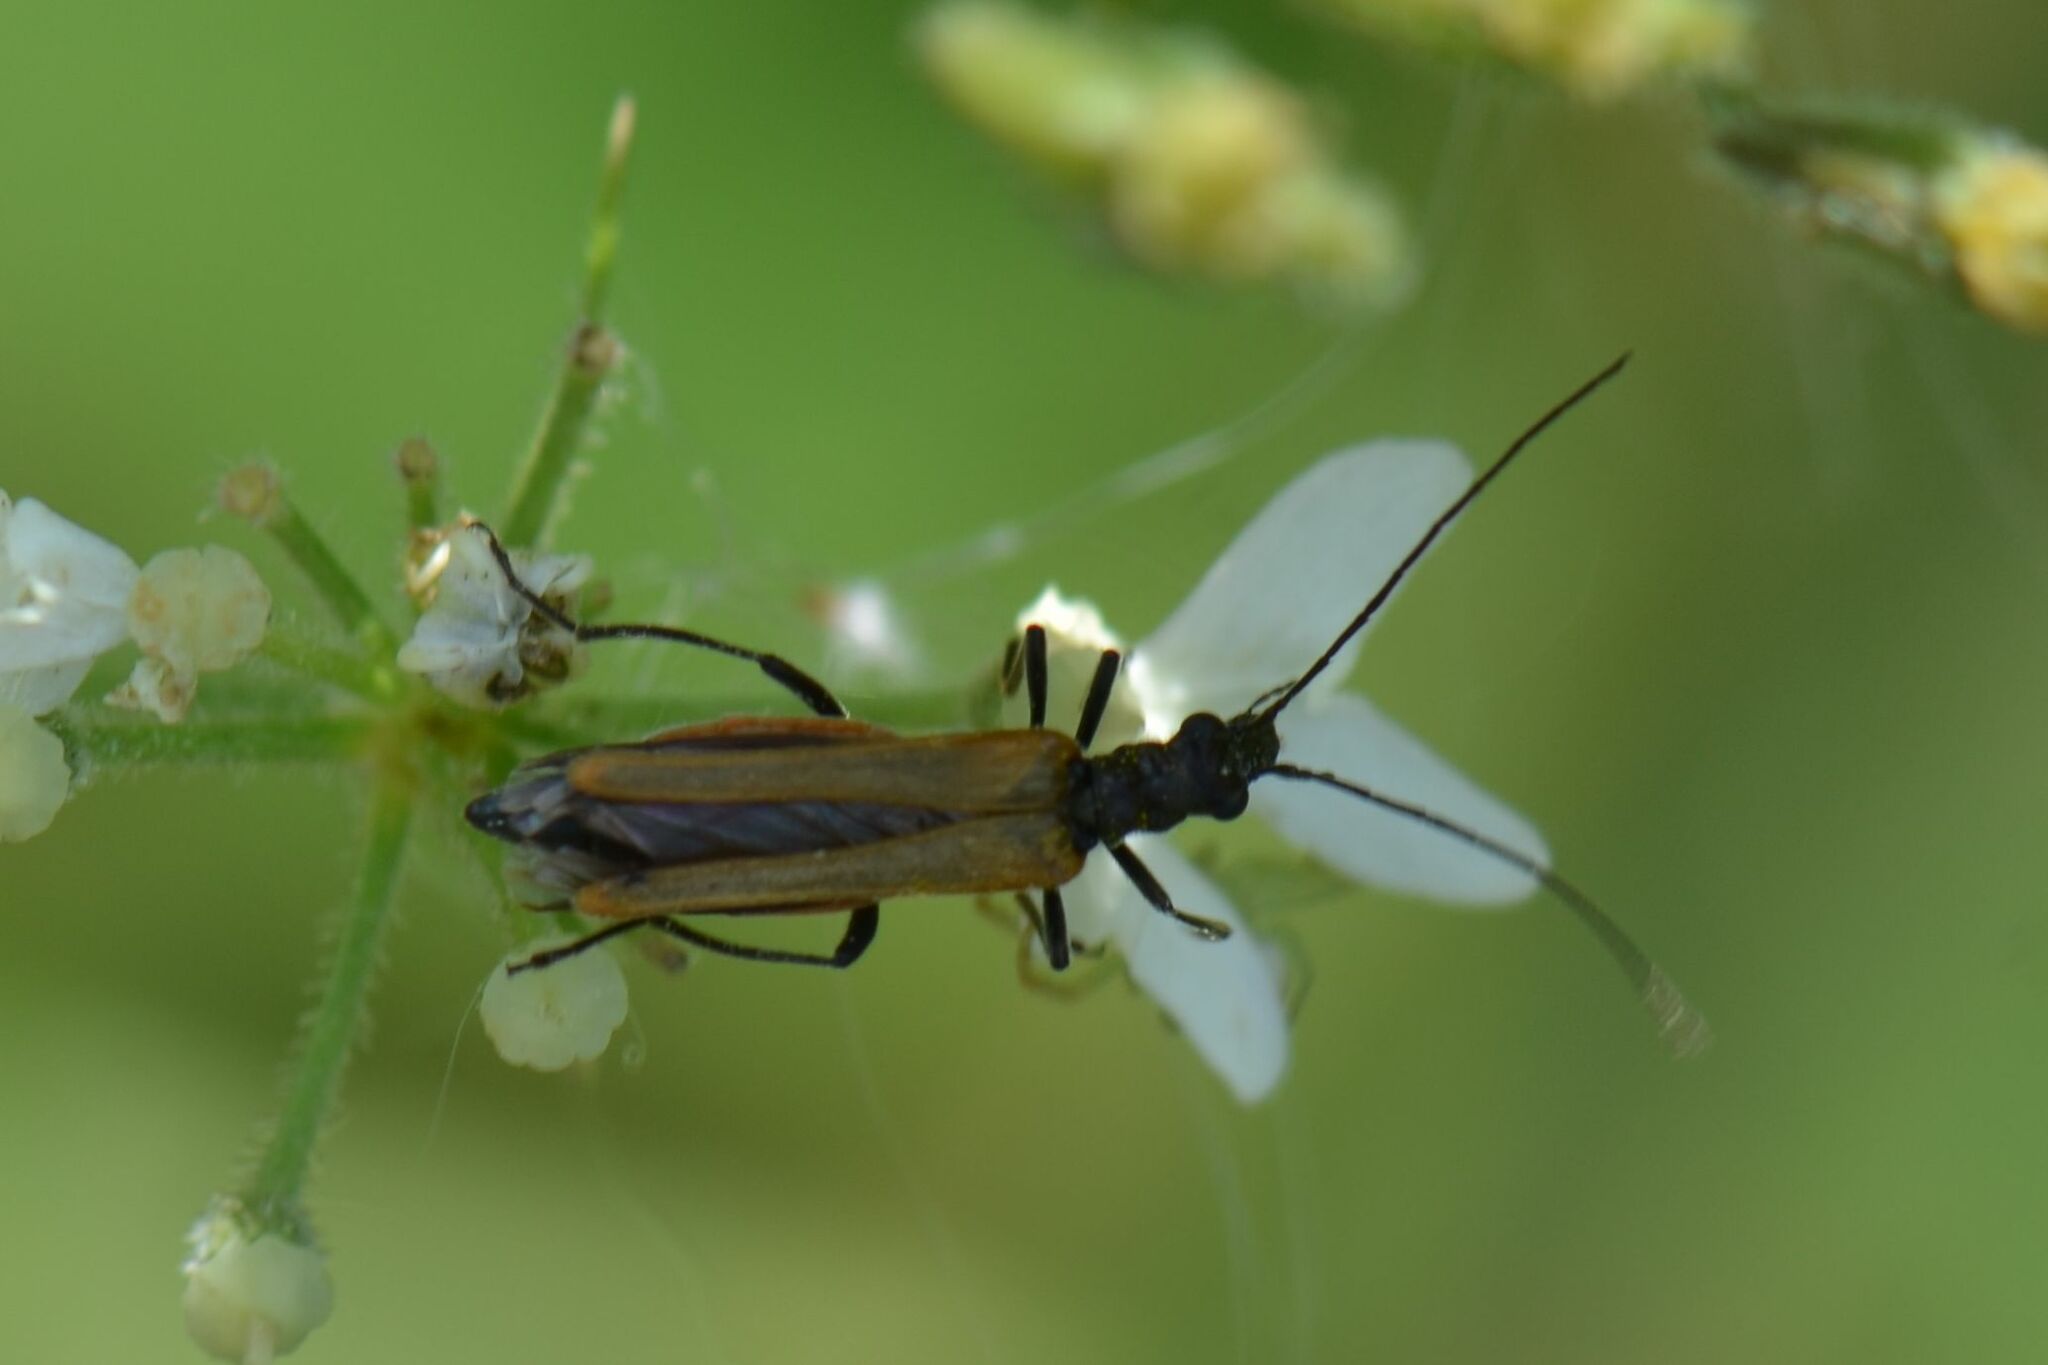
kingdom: Animalia
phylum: Arthropoda
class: Insecta
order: Coleoptera
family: Oedemeridae
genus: Oedemera
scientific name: Oedemera femorata
